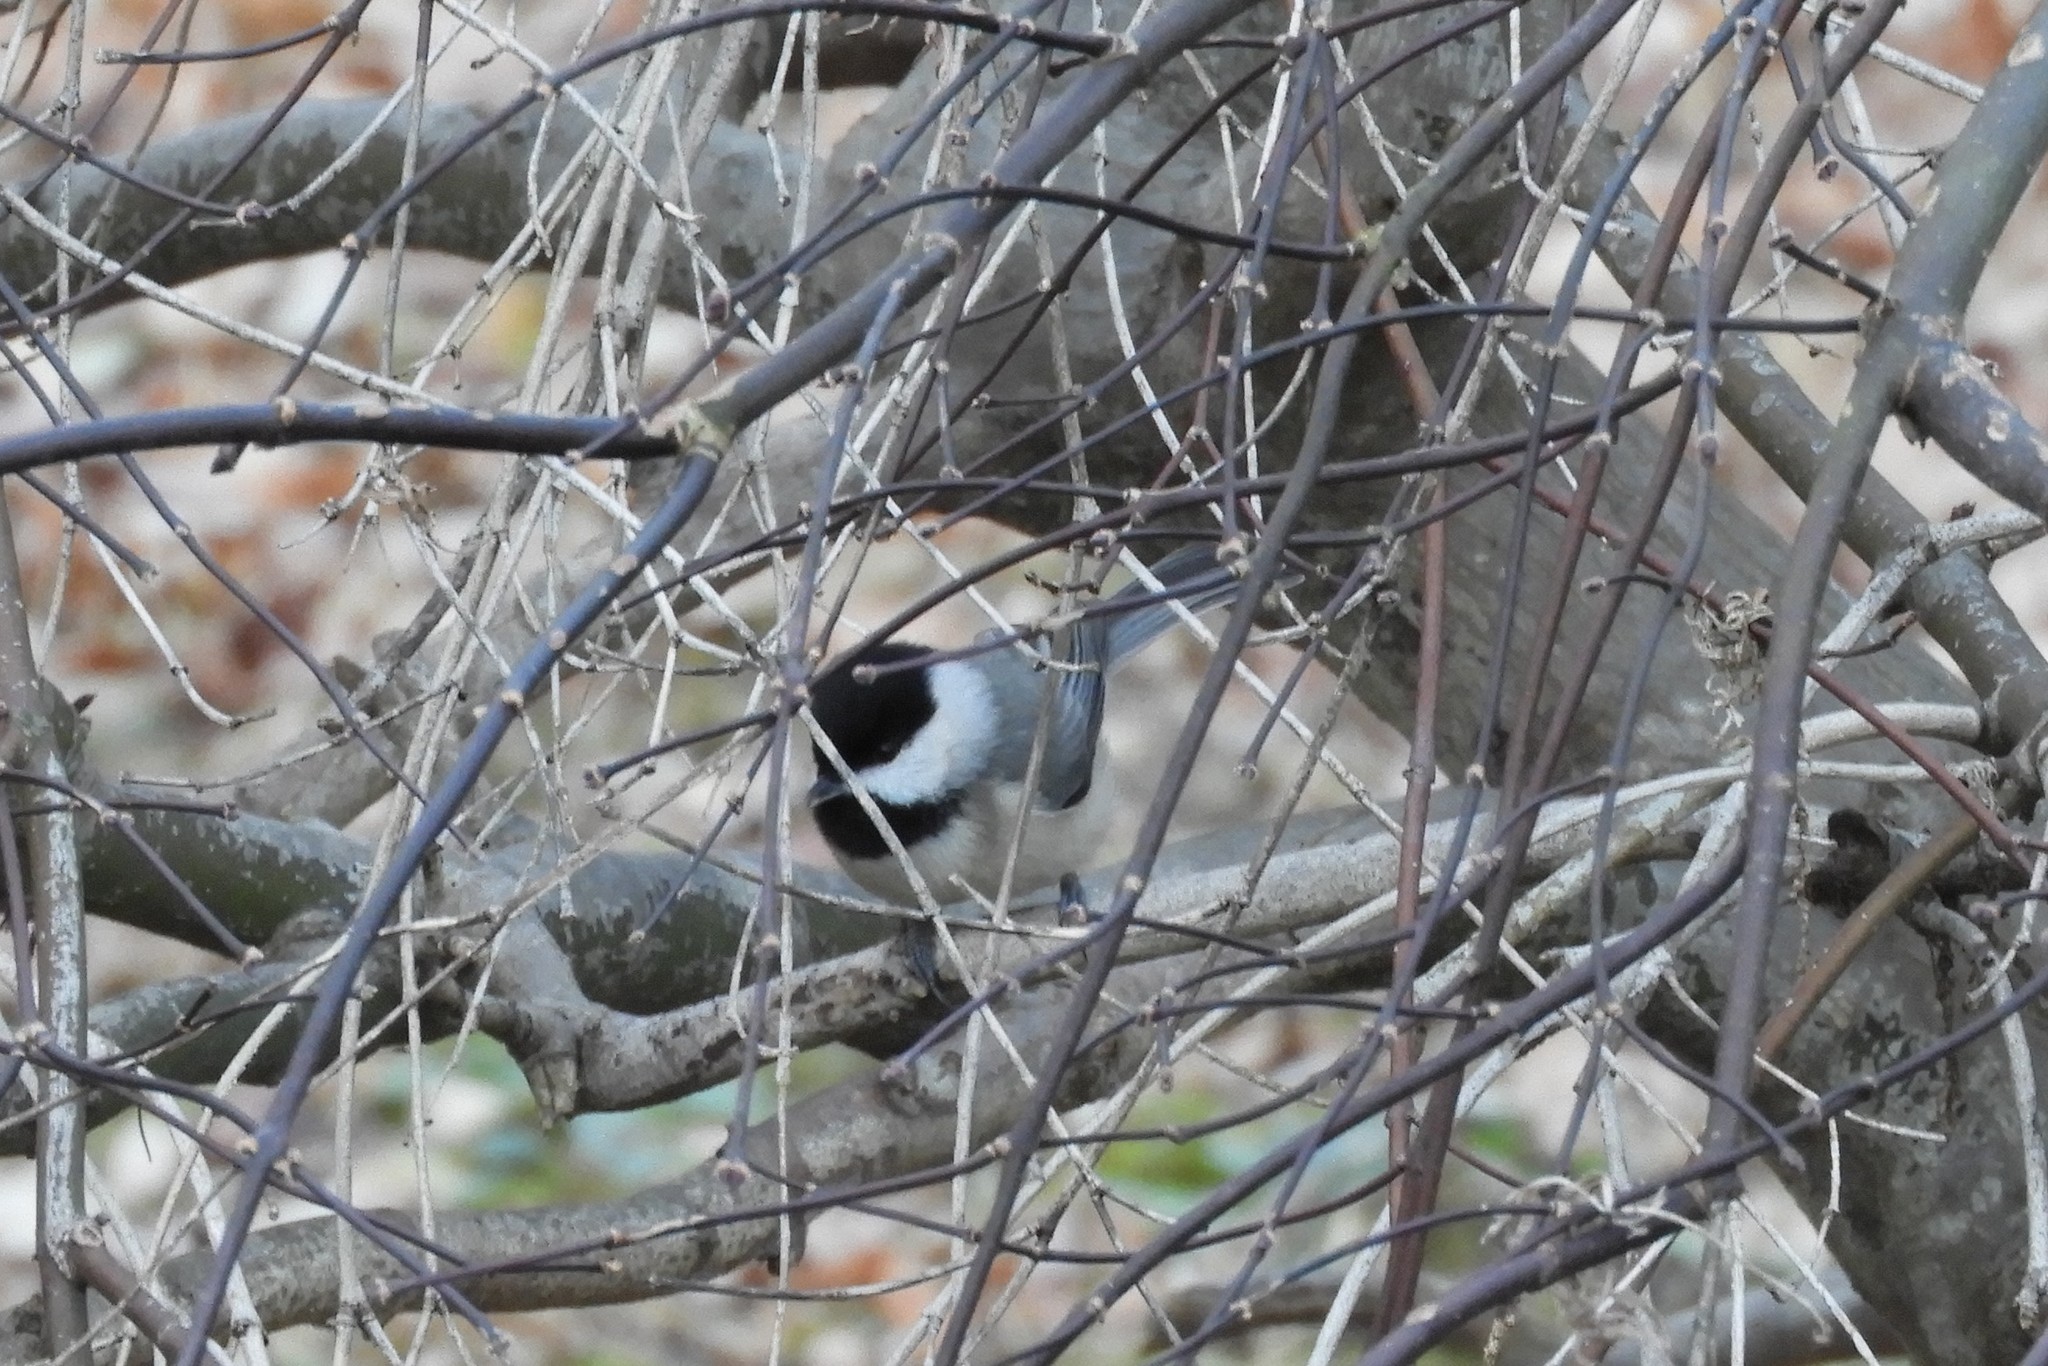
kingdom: Animalia
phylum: Chordata
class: Aves
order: Passeriformes
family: Paridae
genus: Poecile
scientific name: Poecile carolinensis
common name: Carolina chickadee
